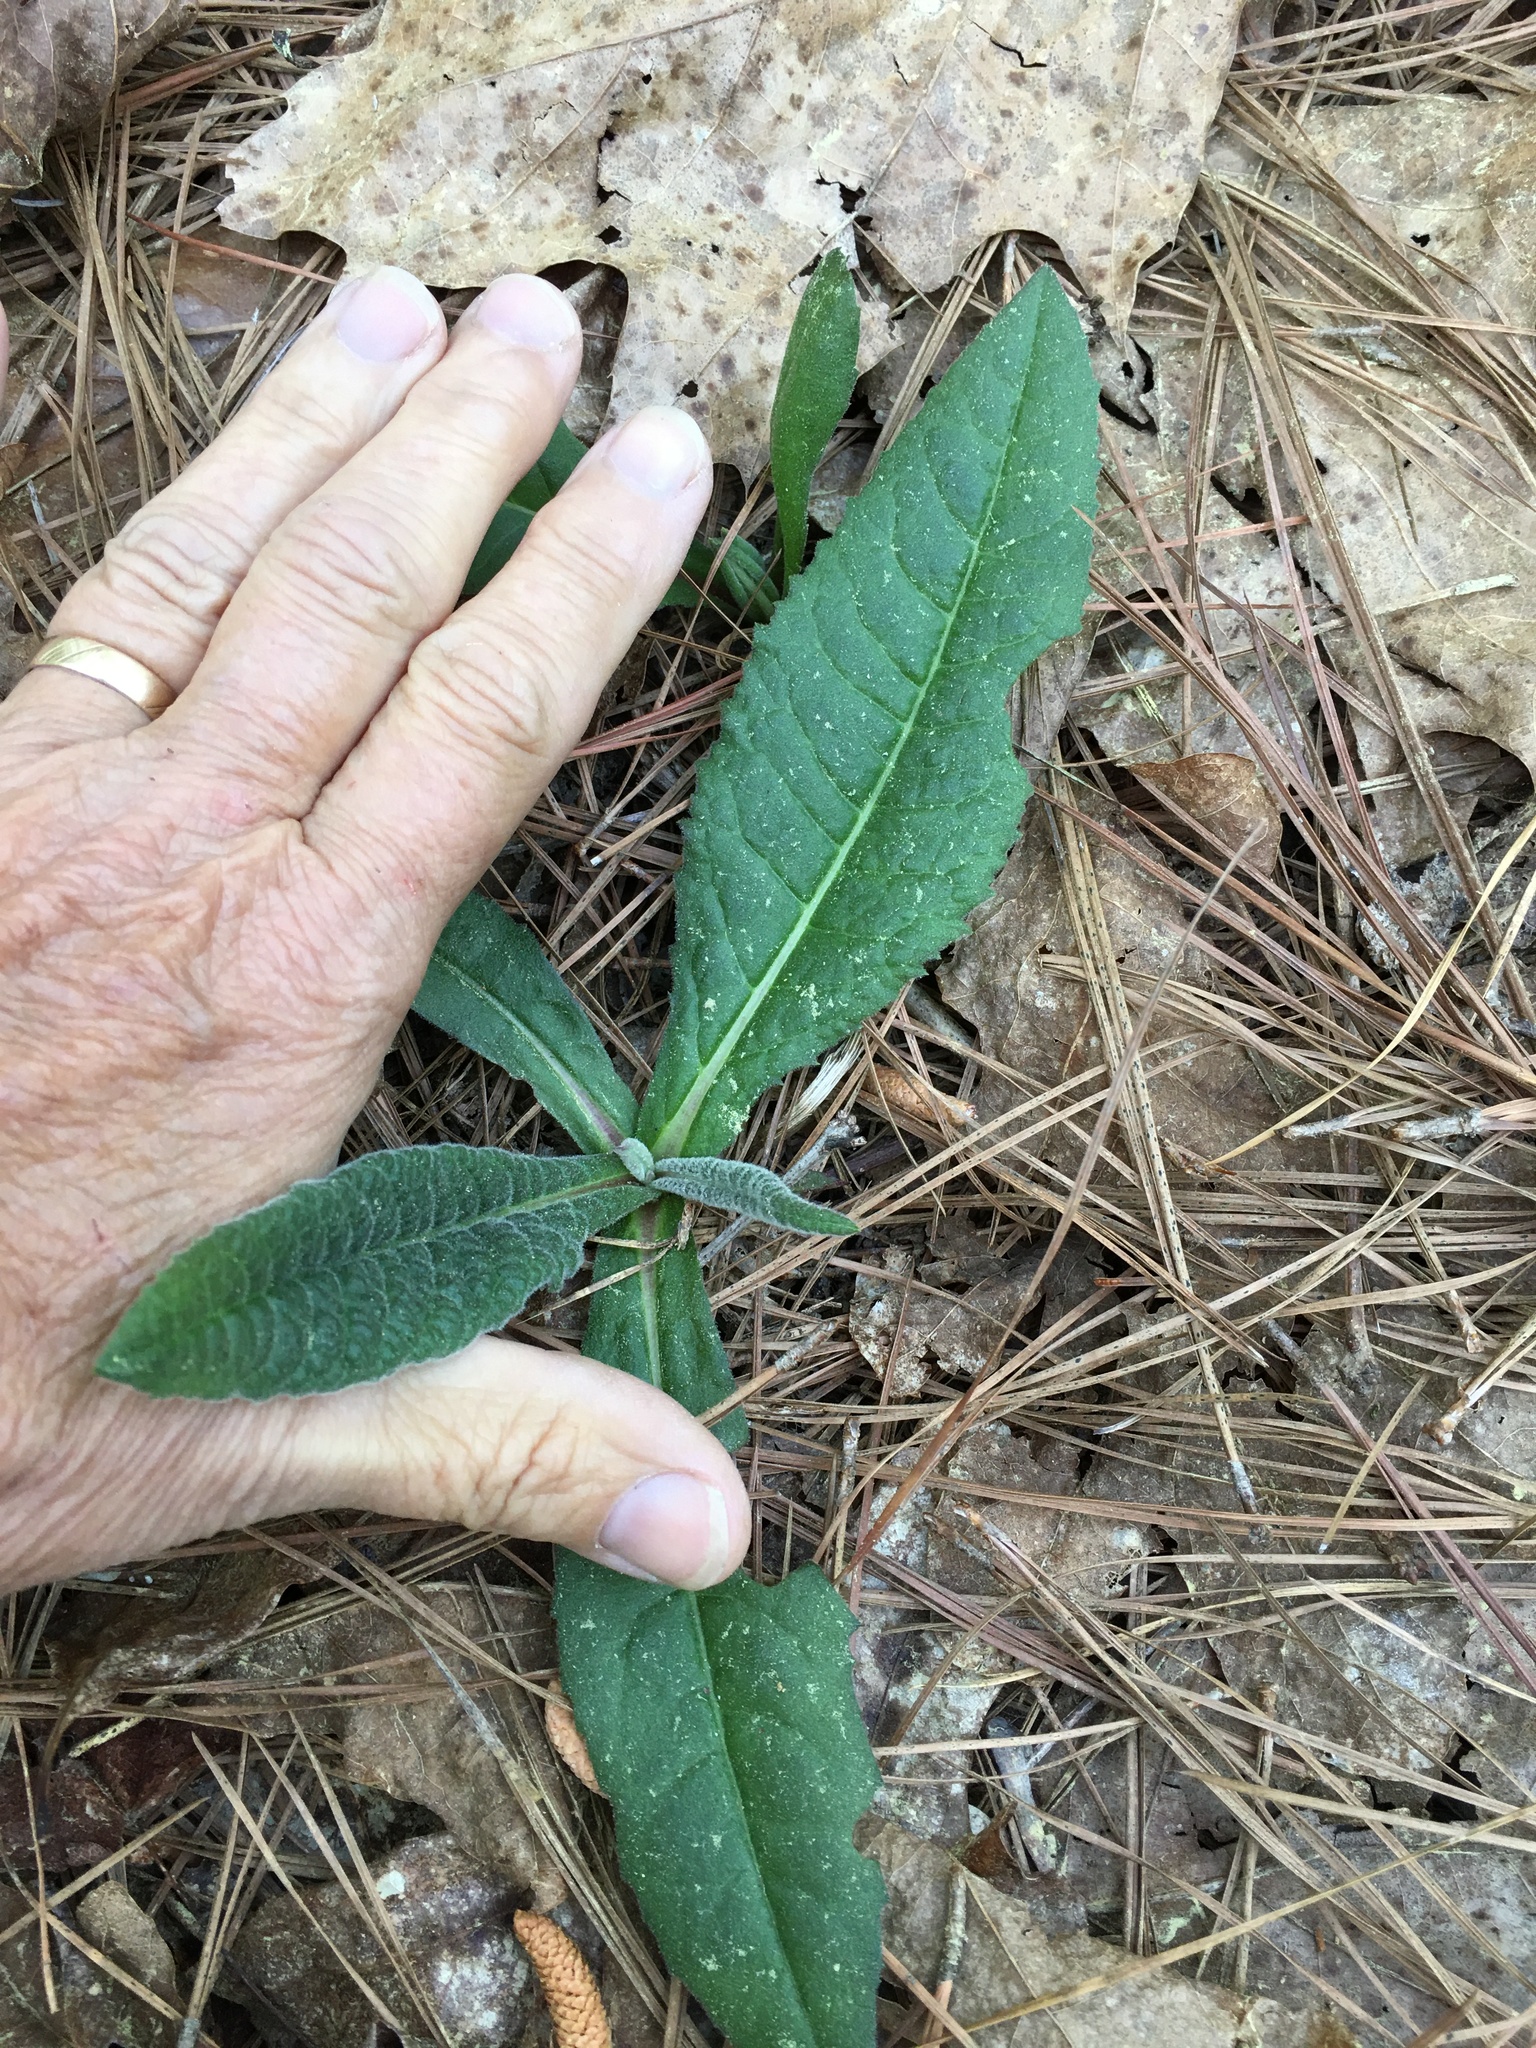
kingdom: Plantae
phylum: Tracheophyta
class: Magnoliopsida
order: Asterales
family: Asteraceae
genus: Elephantopus
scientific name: Elephantopus tomentosus
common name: Tobacco-weed
